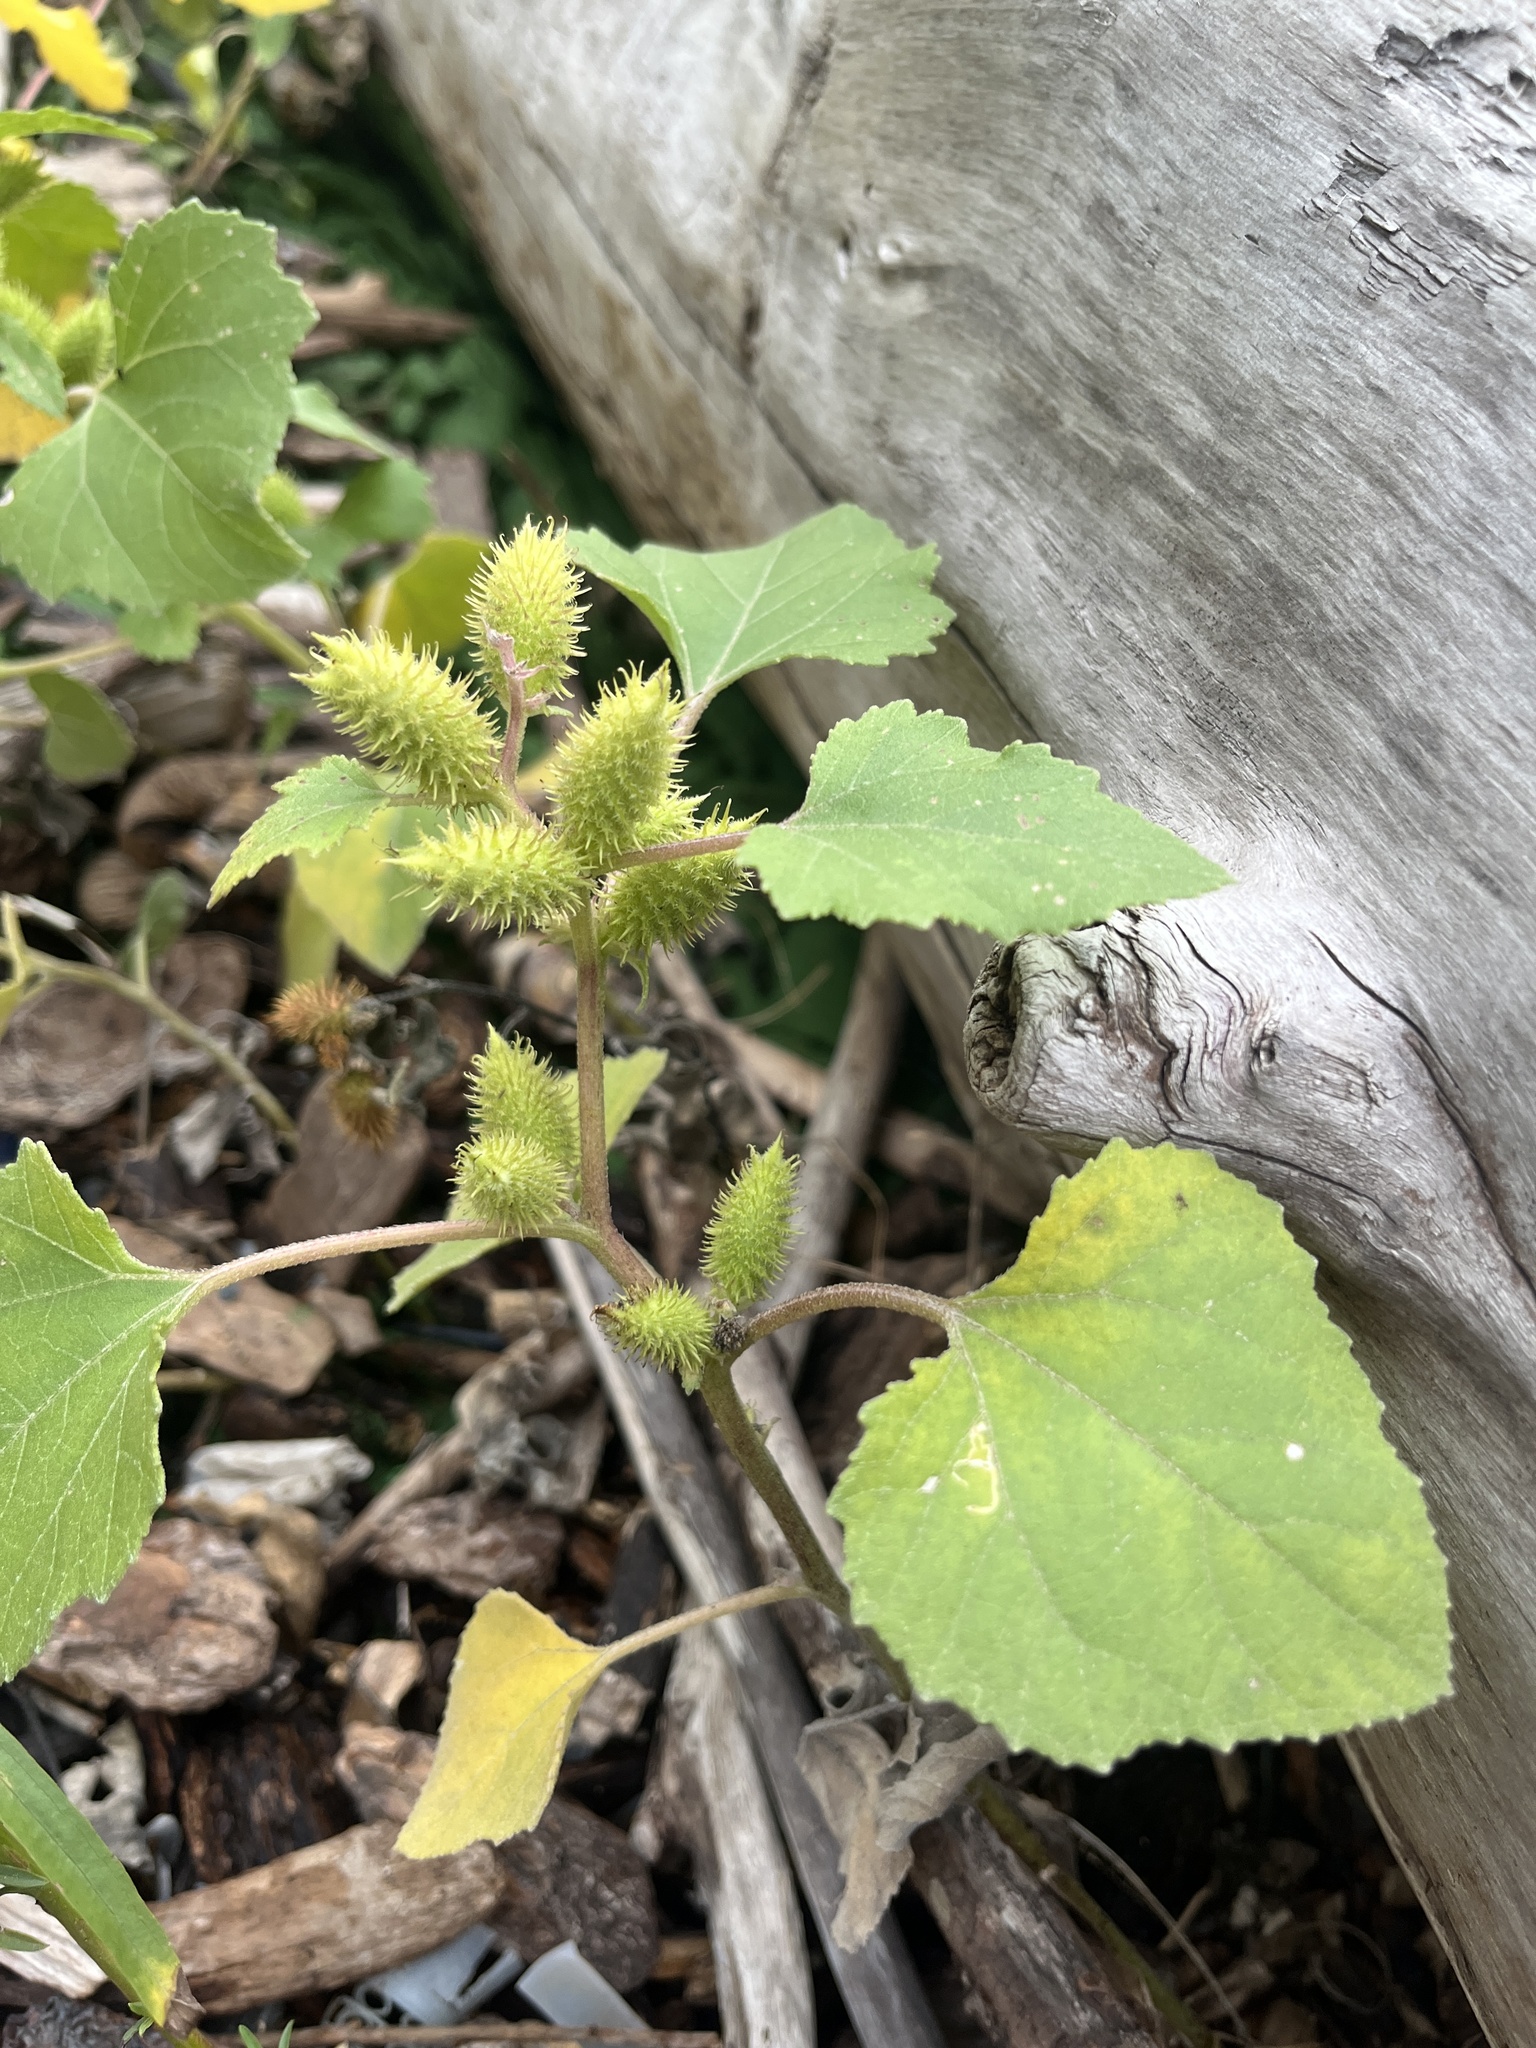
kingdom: Plantae
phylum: Tracheophyta
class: Magnoliopsida
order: Asterales
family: Asteraceae
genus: Xanthium
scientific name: Xanthium strumarium
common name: Rough cocklebur
